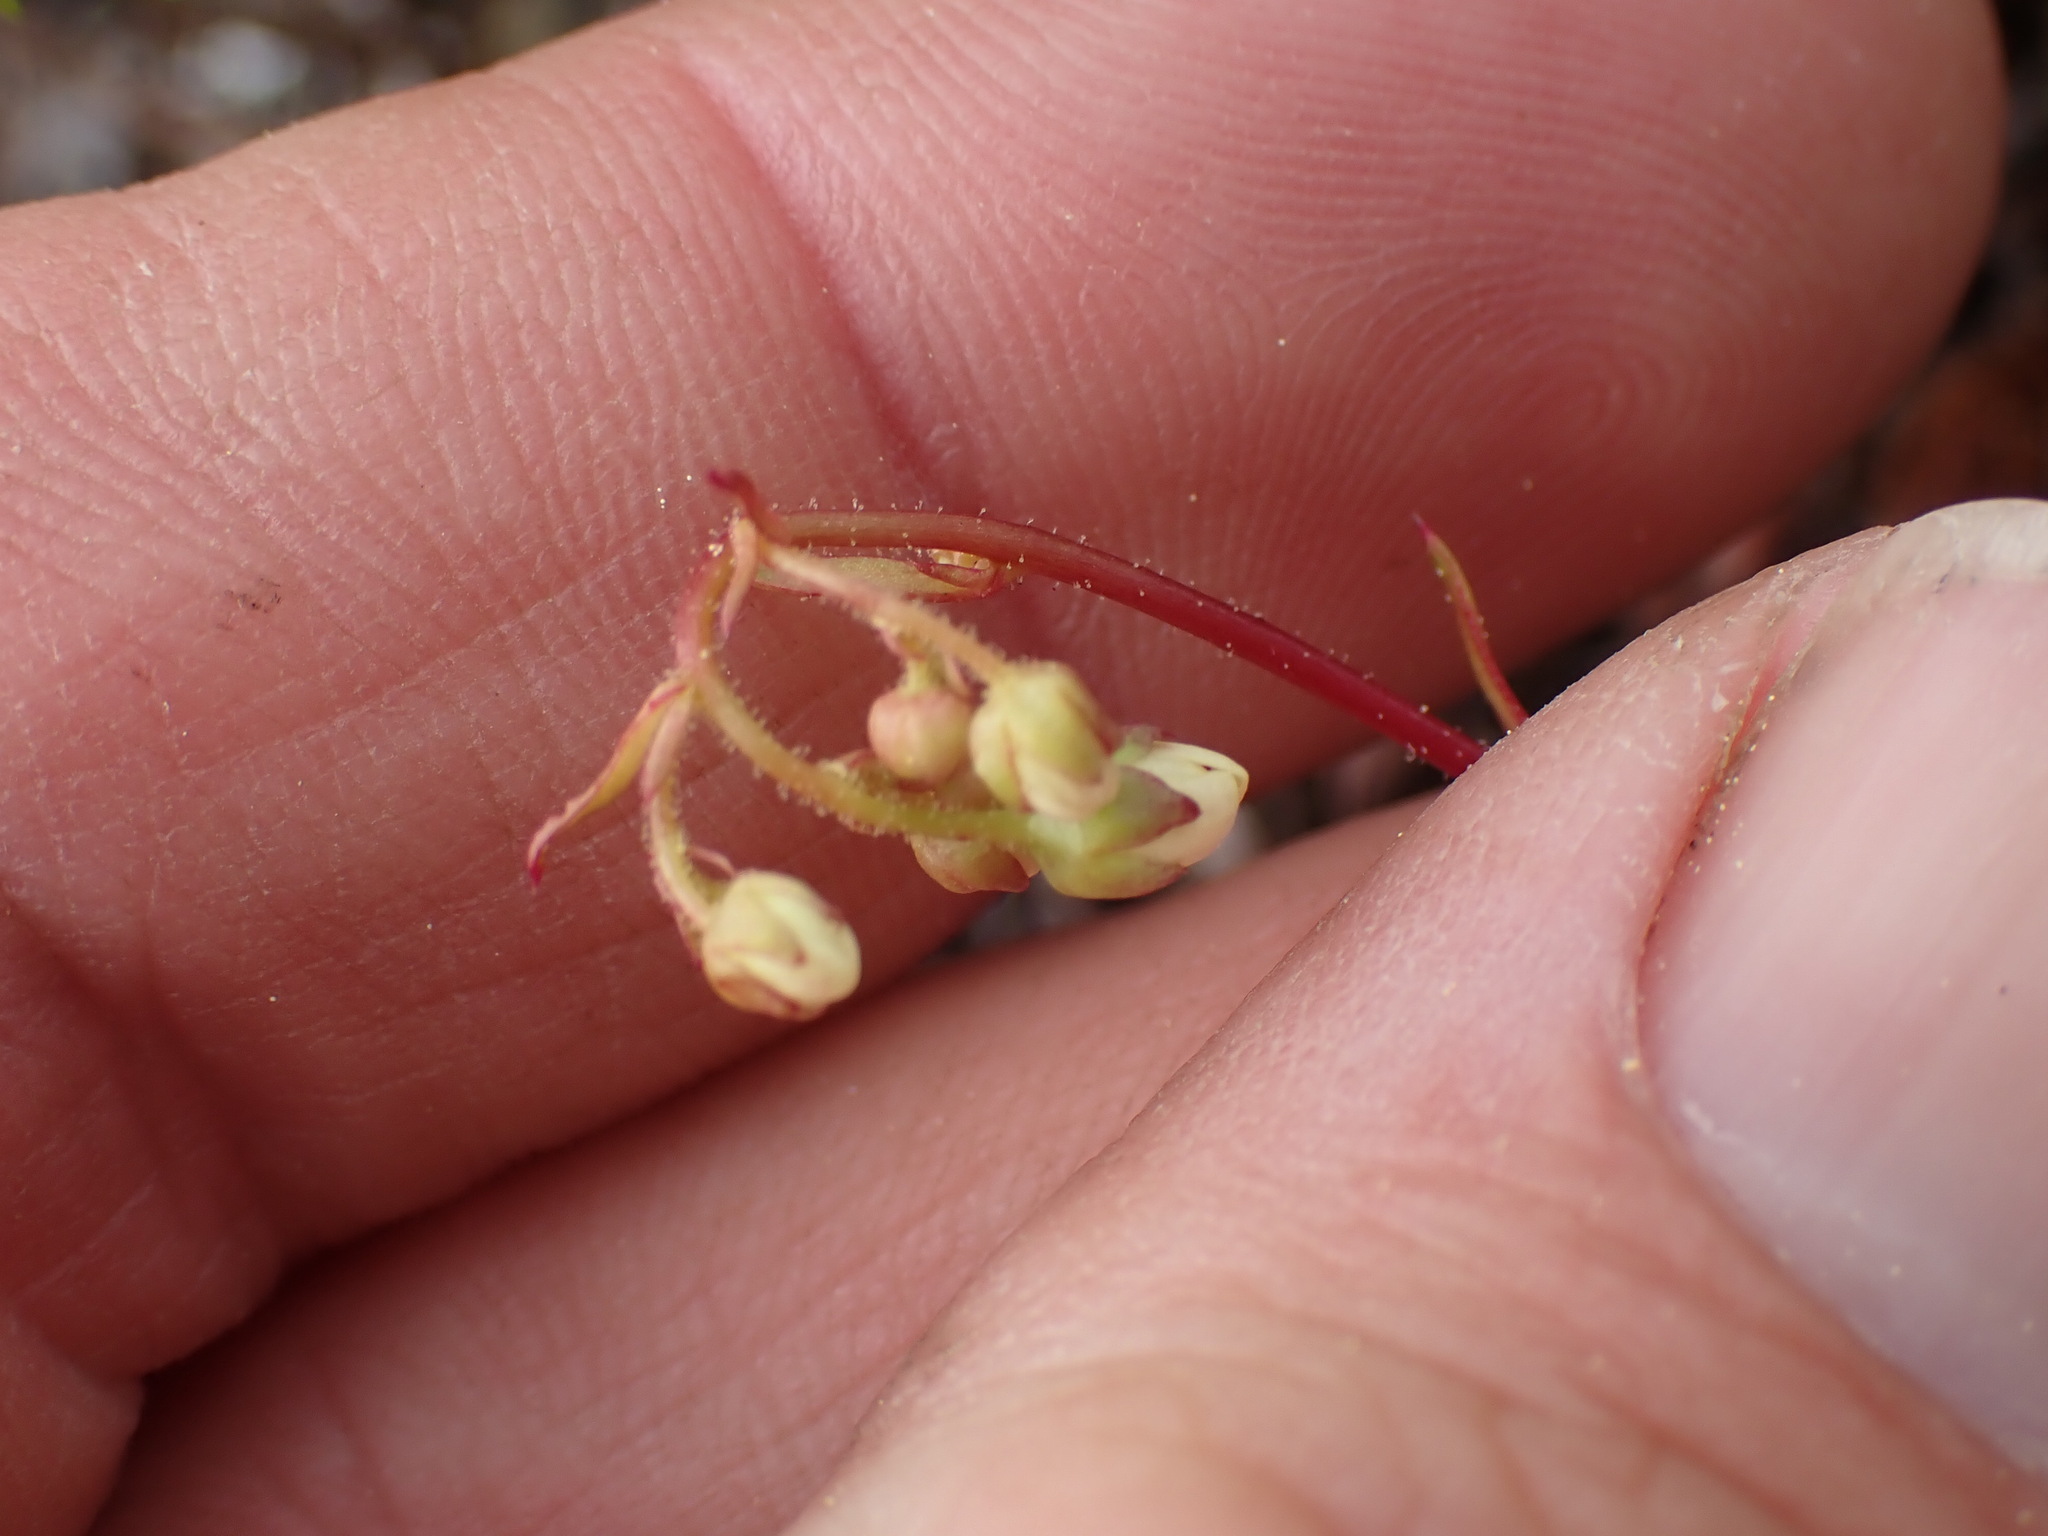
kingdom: Plantae
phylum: Tracheophyta
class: Magnoliopsida
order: Saxifragales
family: Saxifragaceae
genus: Saxifraga
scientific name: Saxifraga bronchialis
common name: Matted saxifrage
